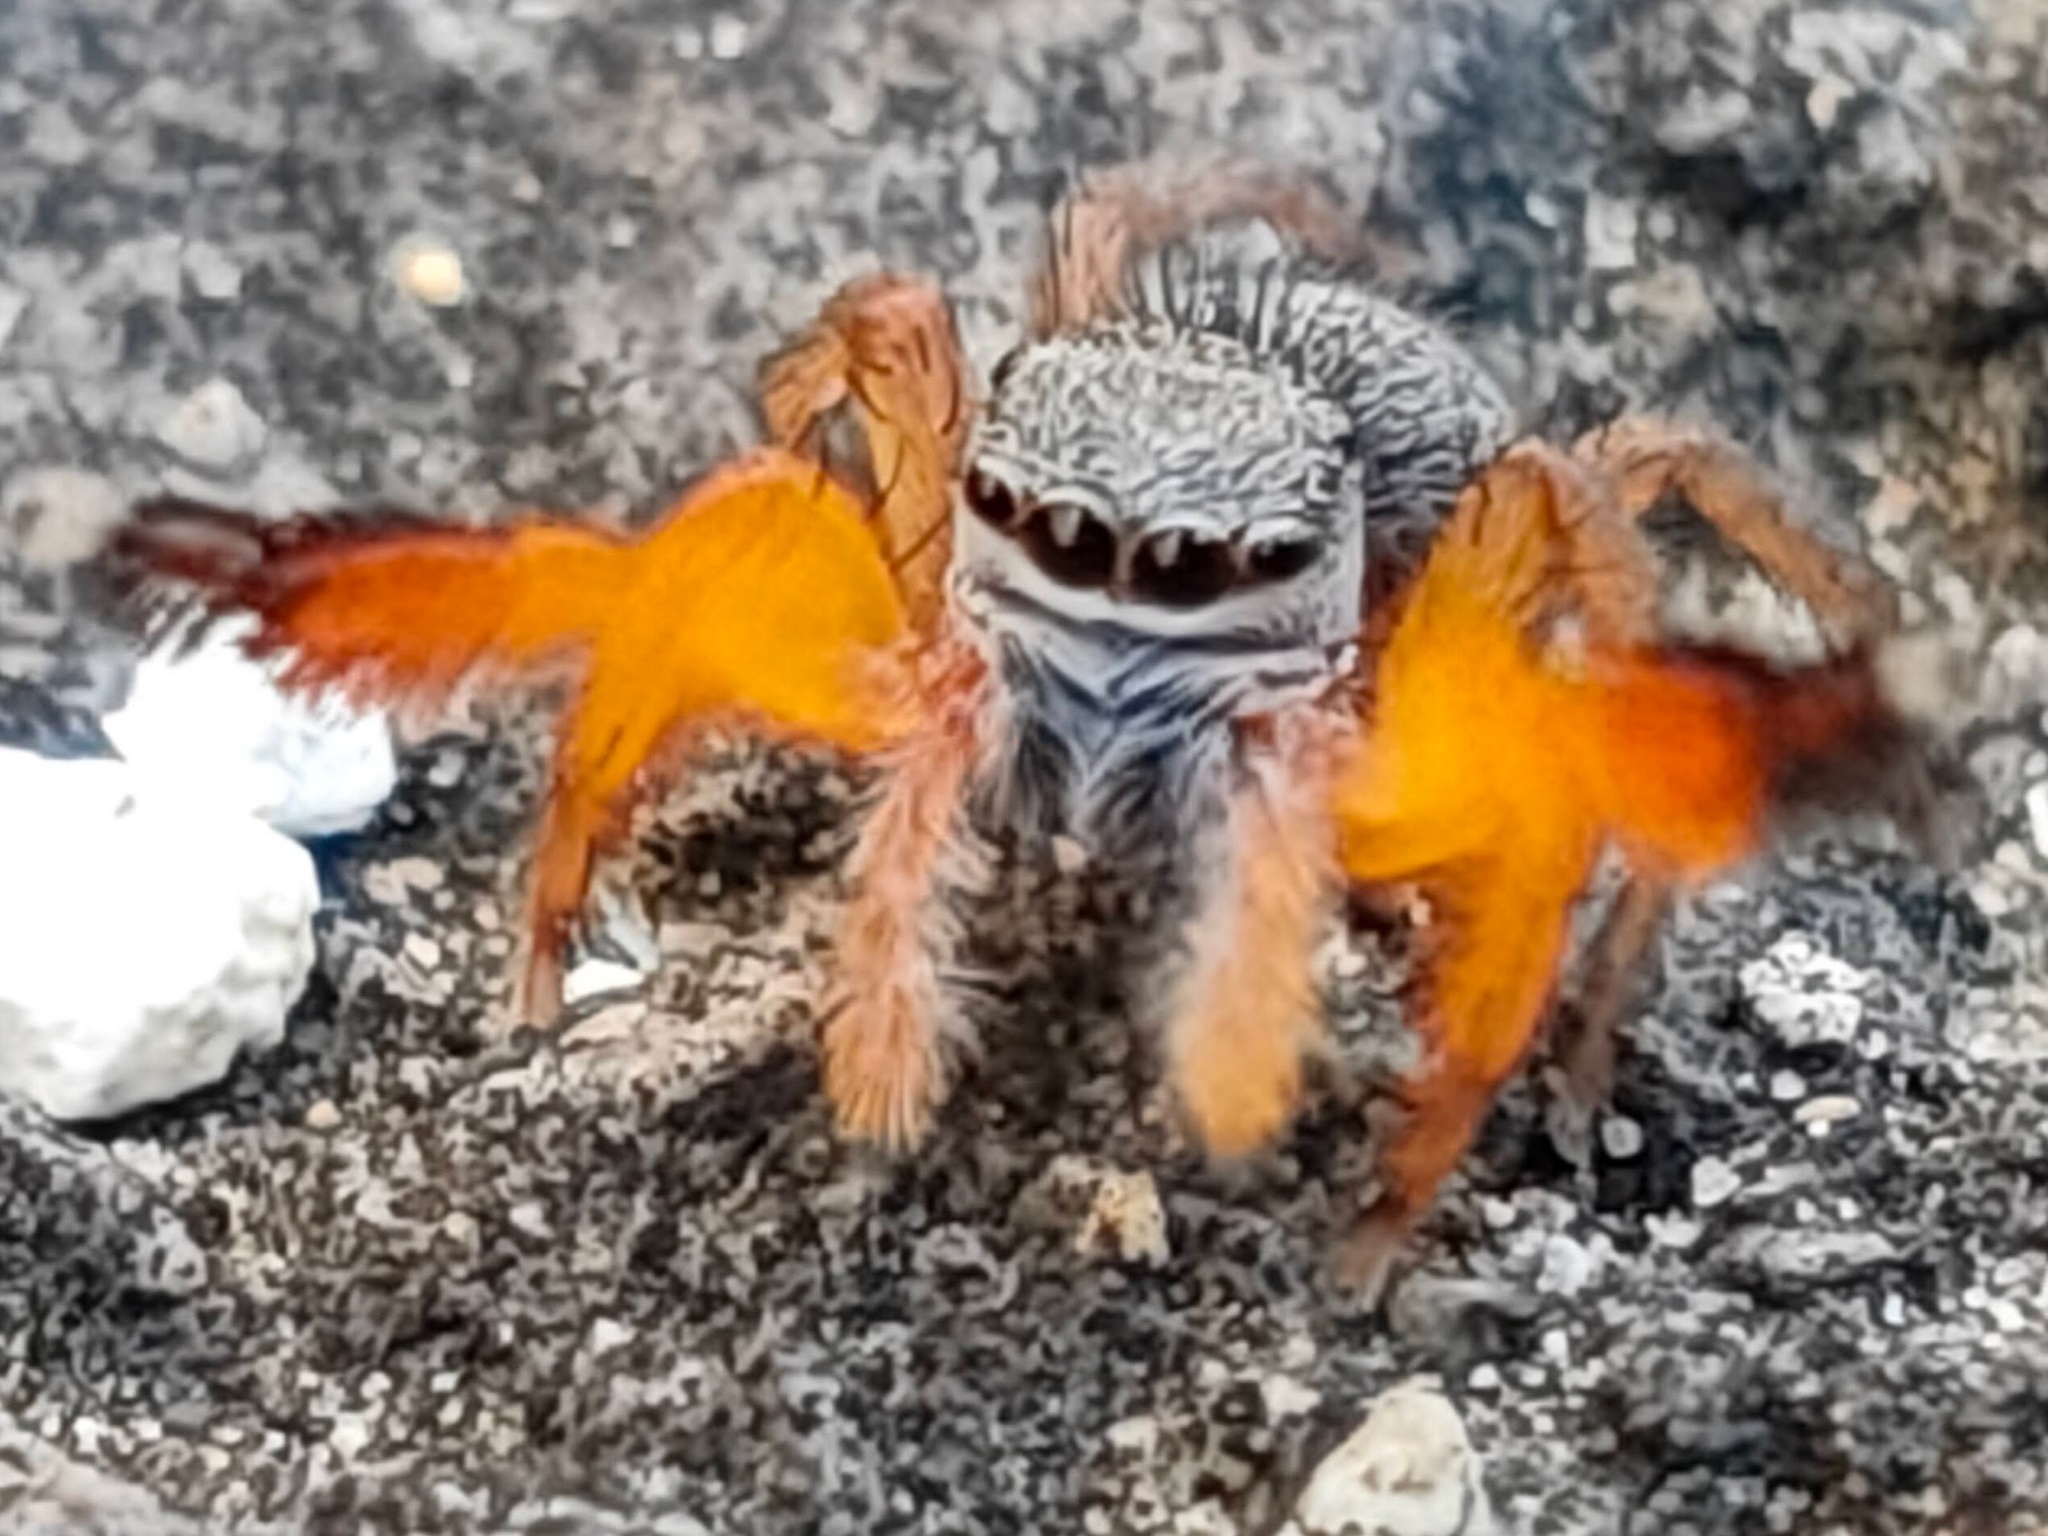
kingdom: Animalia
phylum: Arthropoda
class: Arachnida
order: Araneae
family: Salticidae
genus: Euophrys
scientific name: Euophrys kataokai
